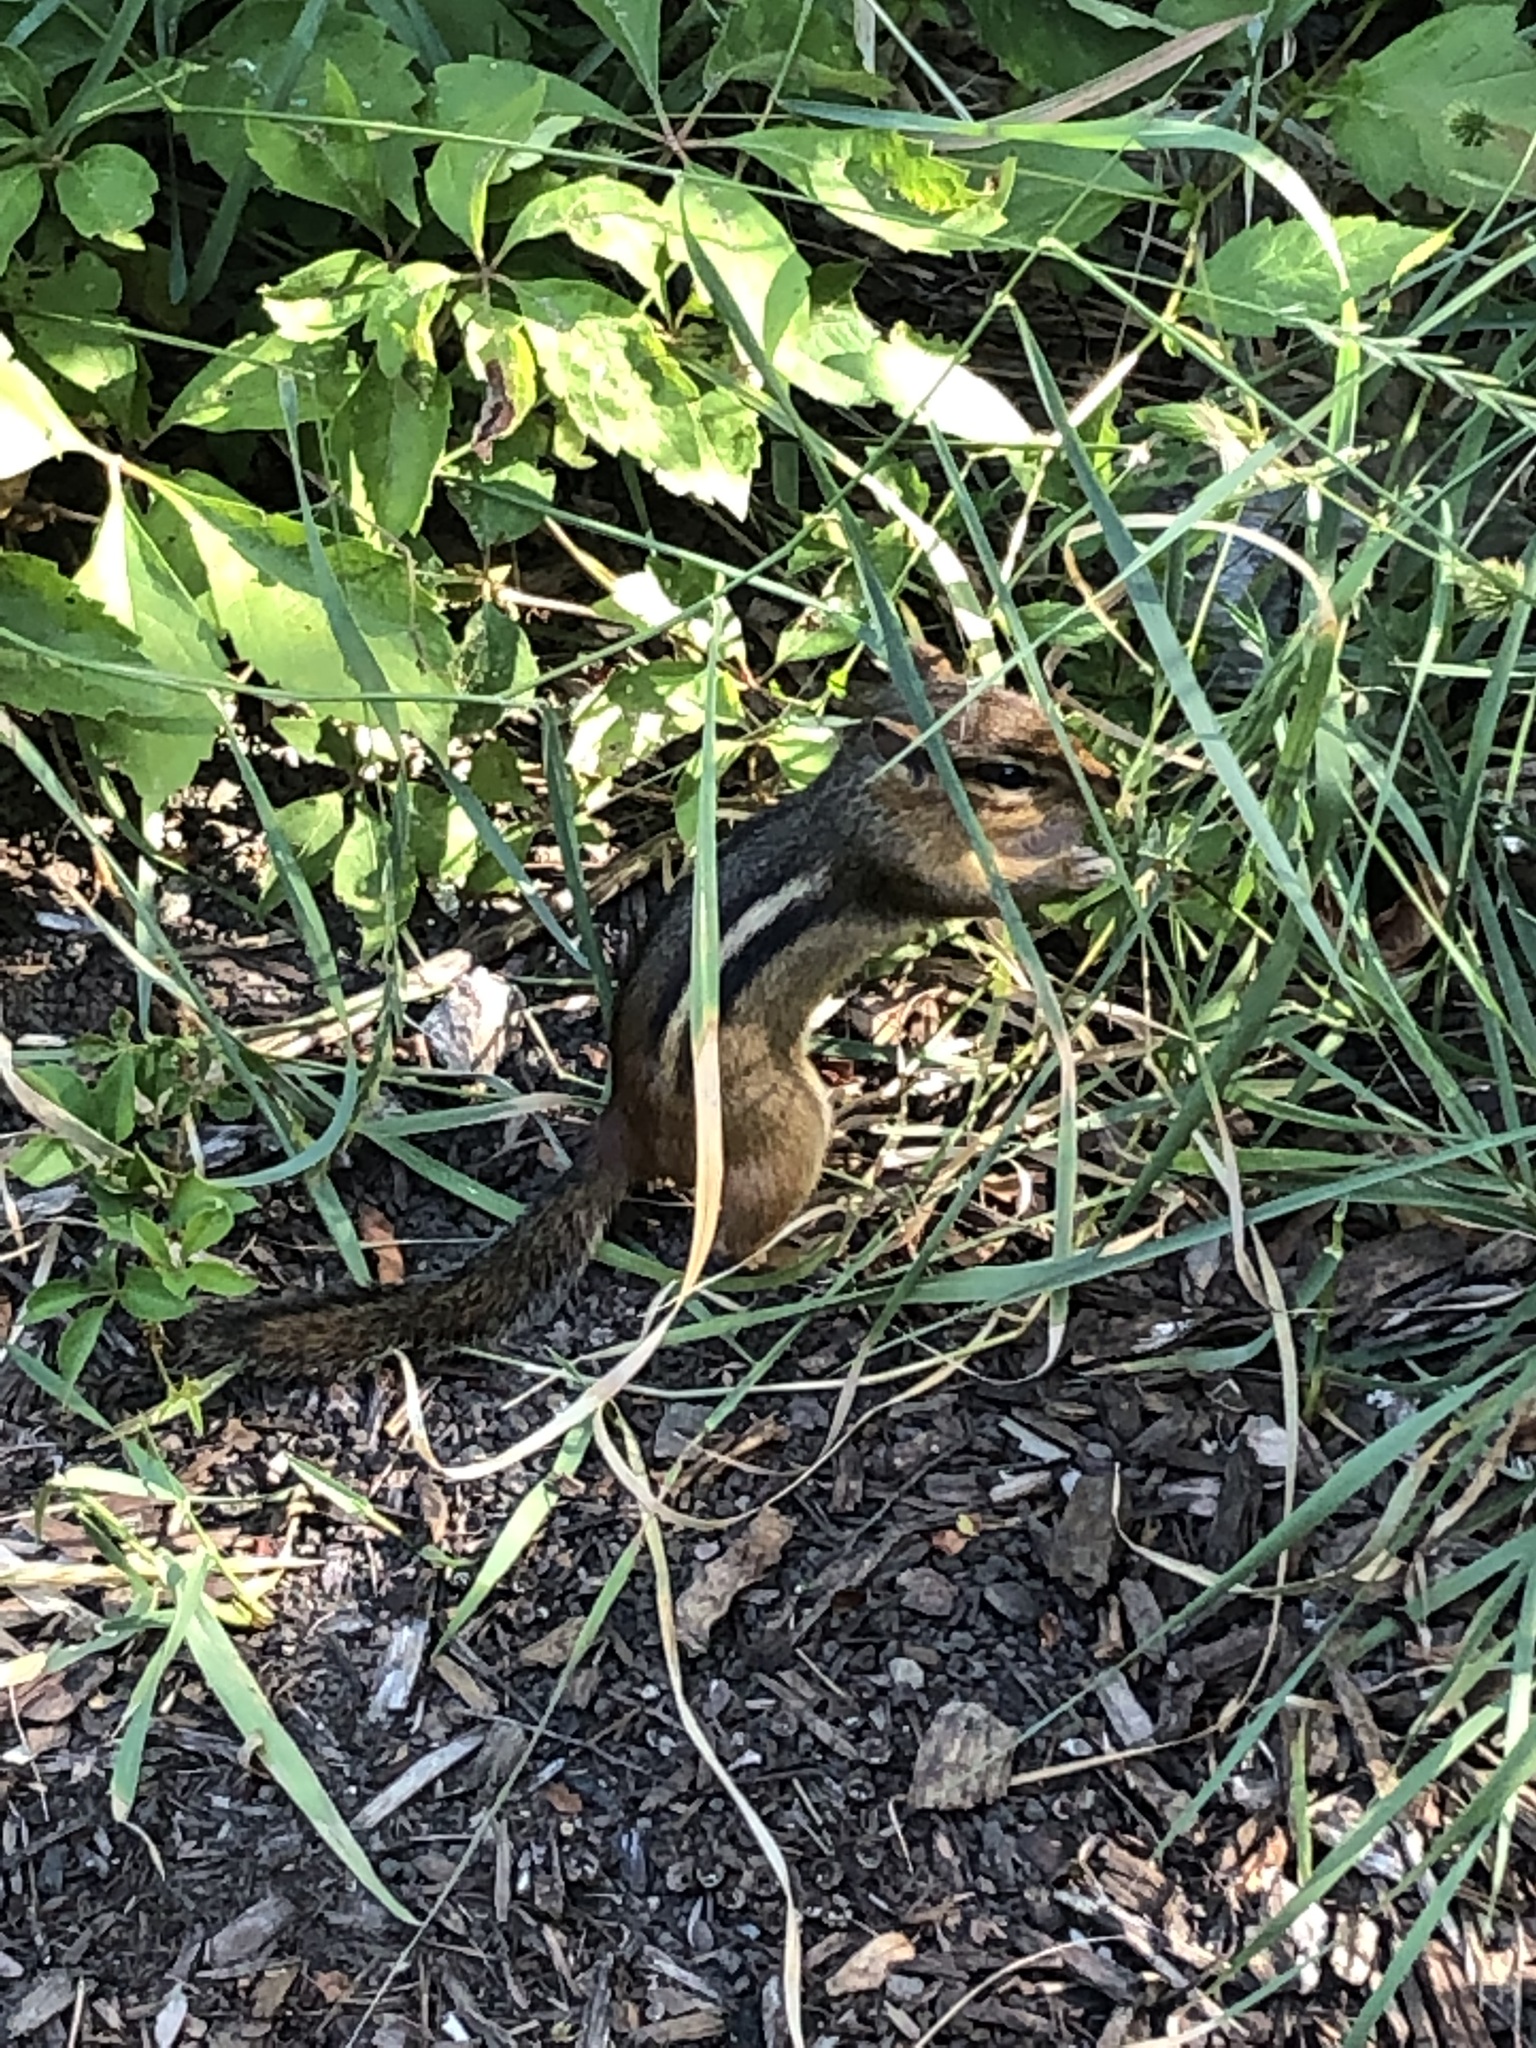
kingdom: Animalia
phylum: Chordata
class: Mammalia
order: Rodentia
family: Sciuridae
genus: Tamias
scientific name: Tamias striatus
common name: Eastern chipmunk
